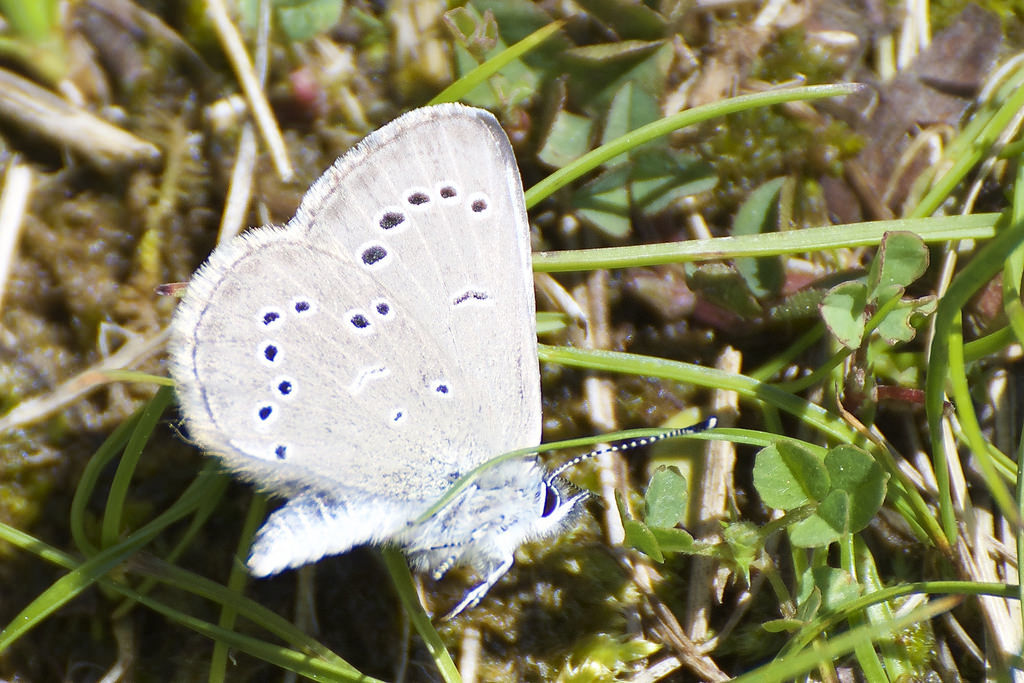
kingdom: Animalia
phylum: Arthropoda
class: Insecta
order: Lepidoptera
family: Lycaenidae
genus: Glaucopsyche
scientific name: Glaucopsyche lygdamus
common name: Silvery blue
